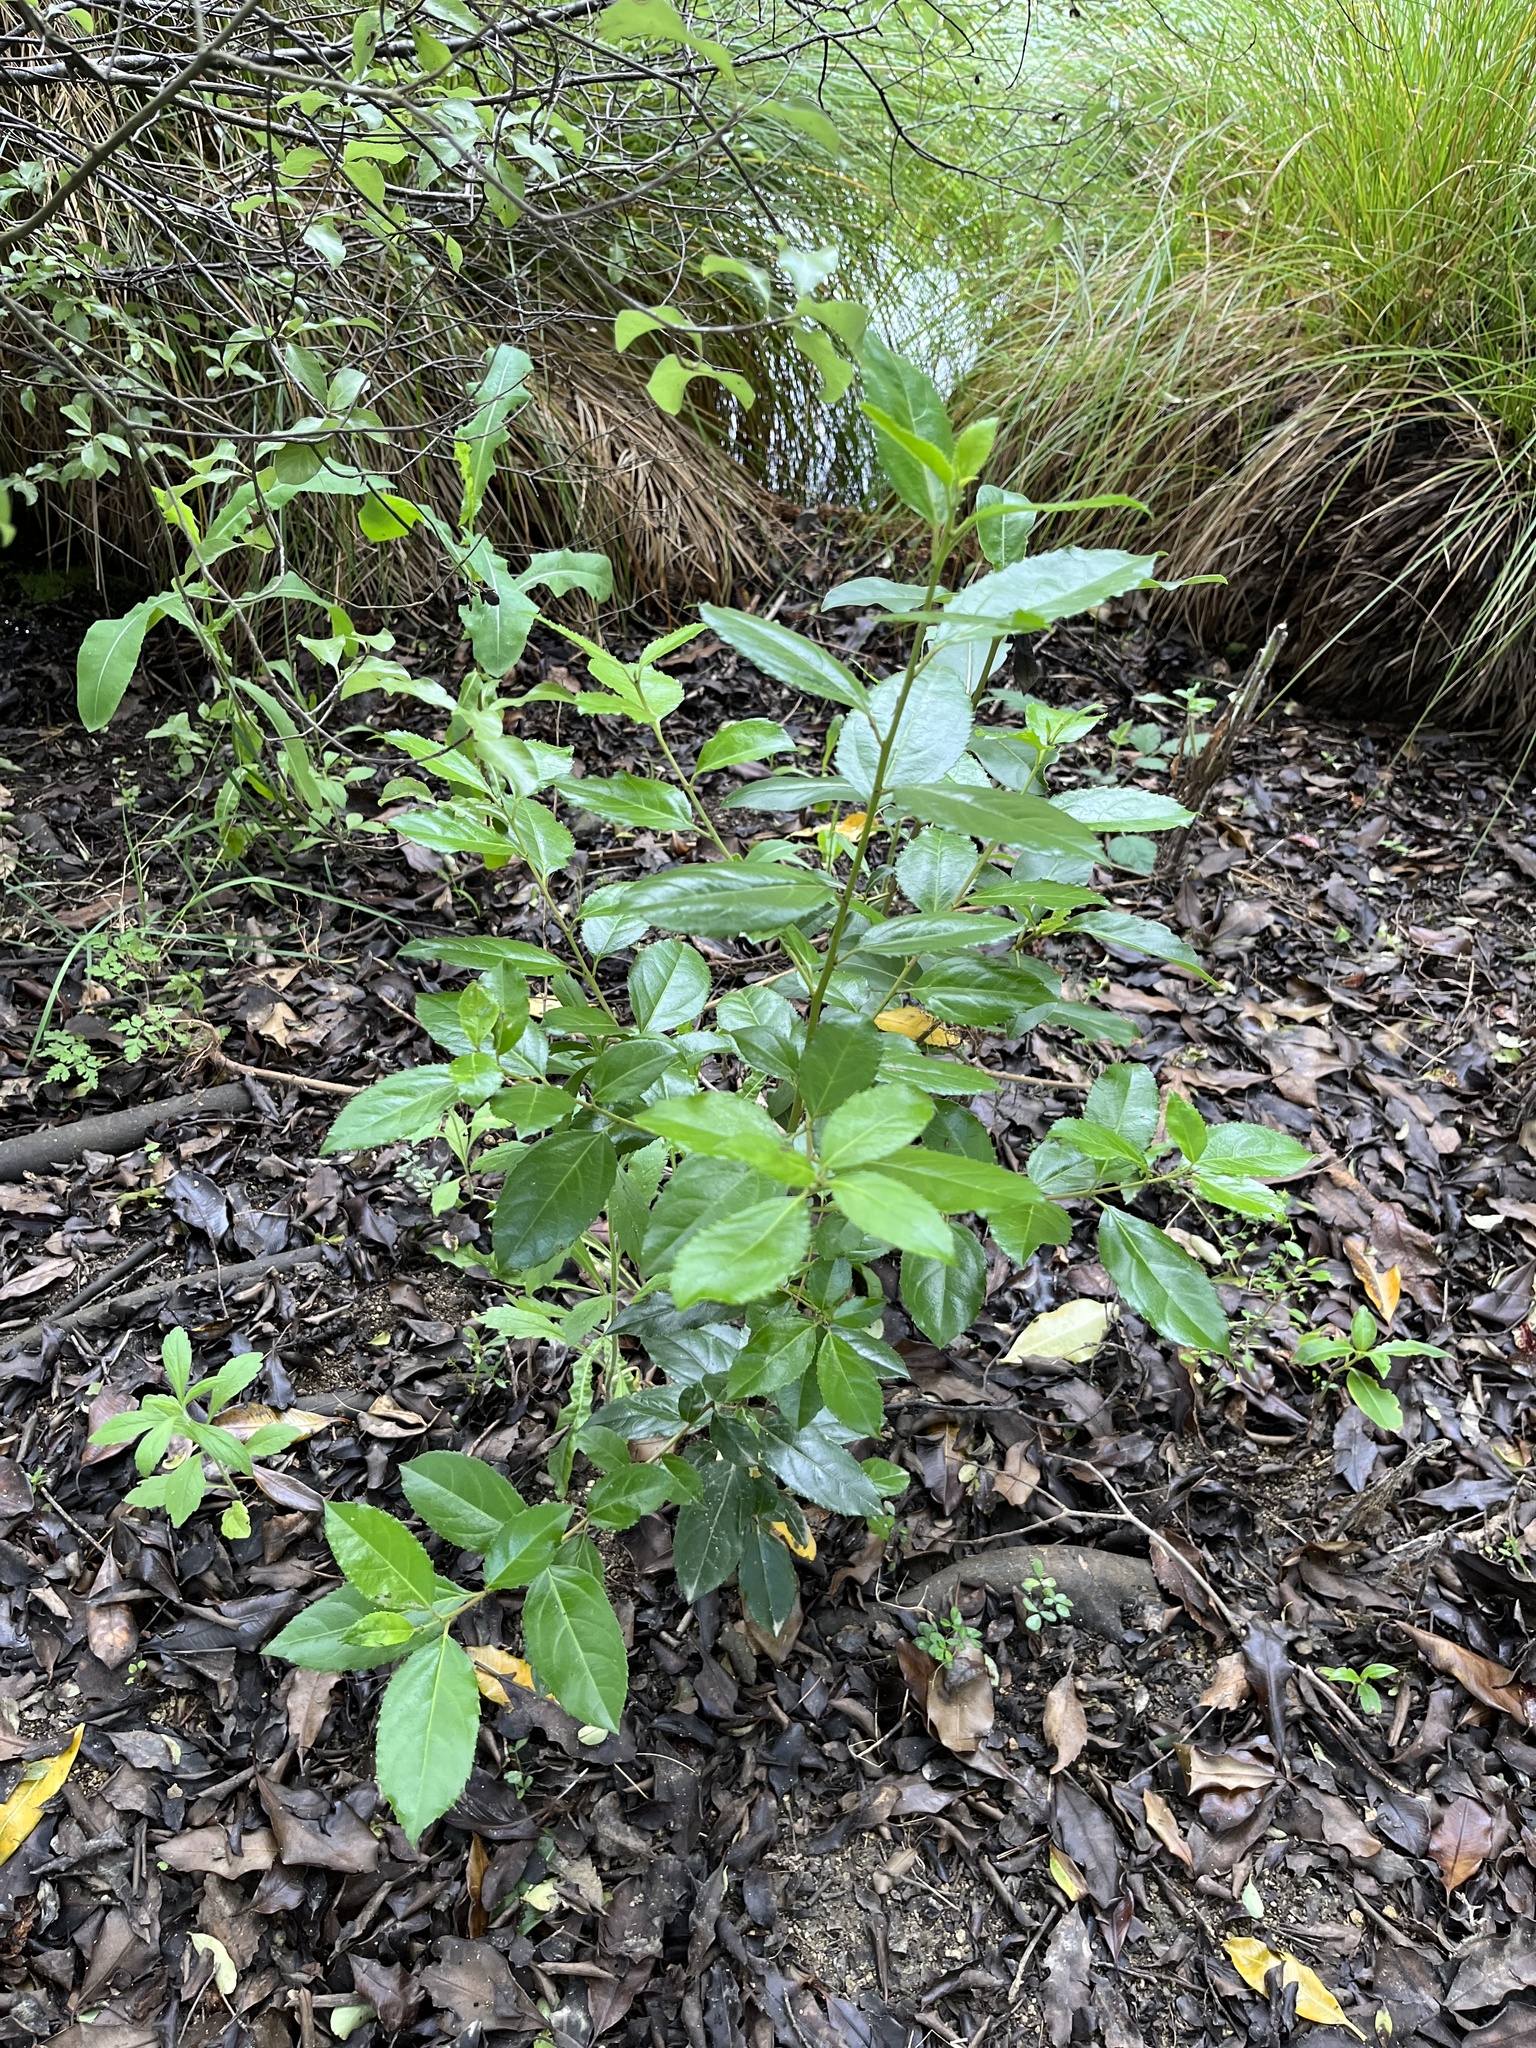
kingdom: Plantae
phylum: Tracheophyta
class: Magnoliopsida
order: Rosales
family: Rhamnaceae
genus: Rhamnus
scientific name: Rhamnus alaternus
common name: Mediterranean buckthorn
